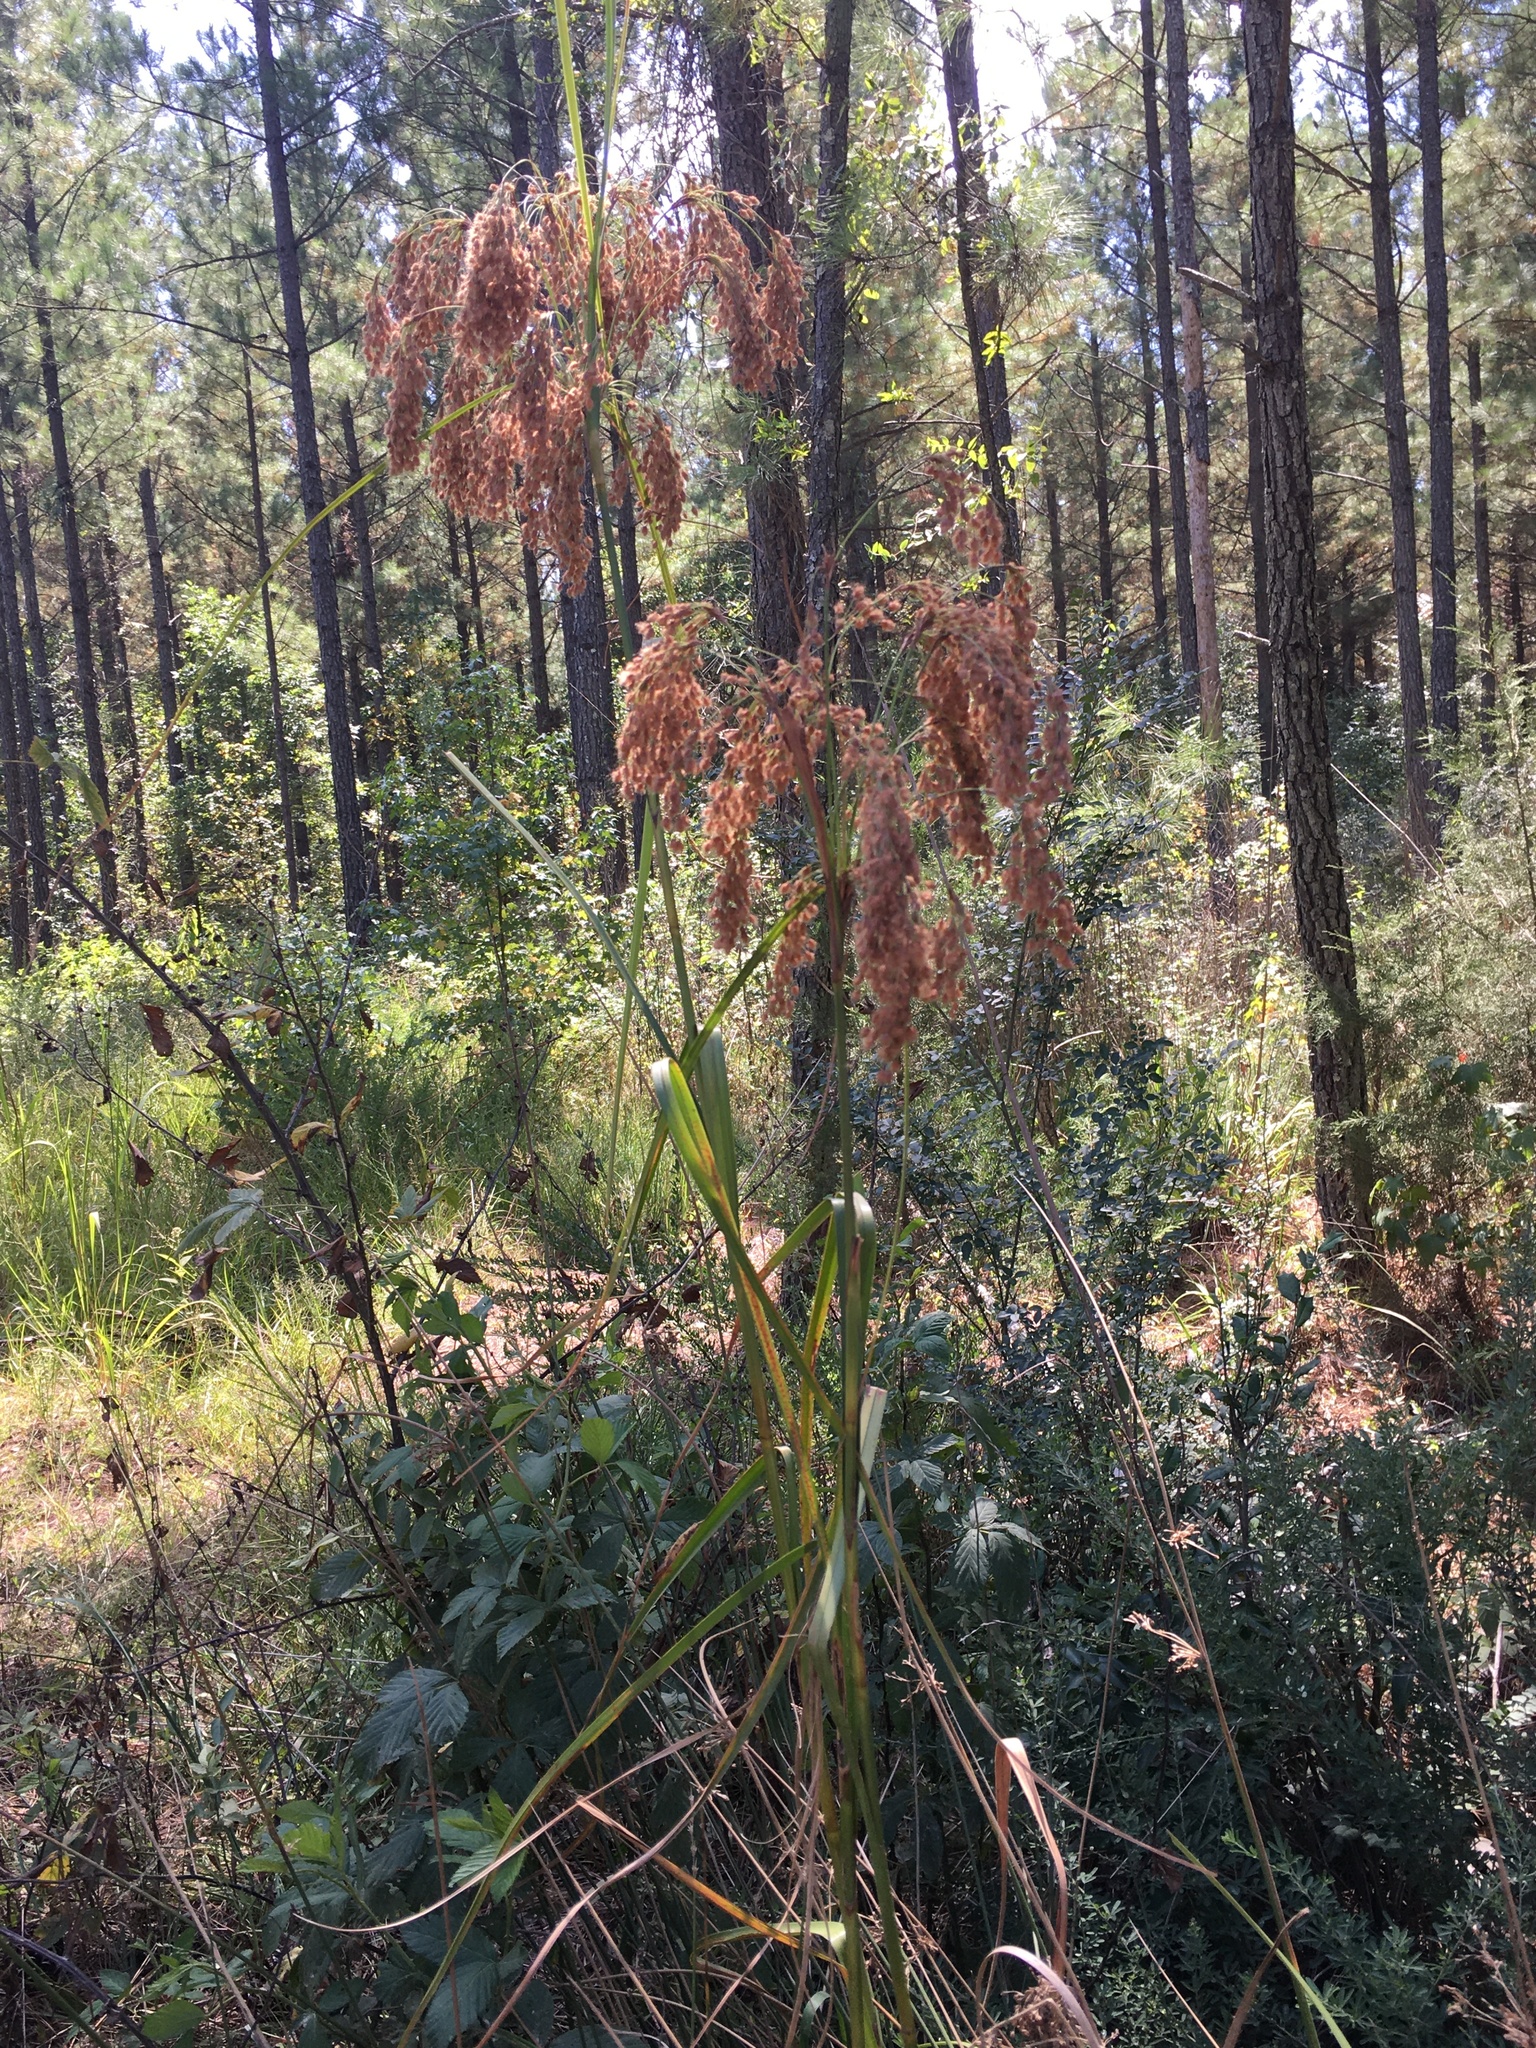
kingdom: Plantae
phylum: Tracheophyta
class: Liliopsida
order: Poales
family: Cyperaceae
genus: Scirpus
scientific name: Scirpus cyperinus
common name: Black-sheathed bulrush
